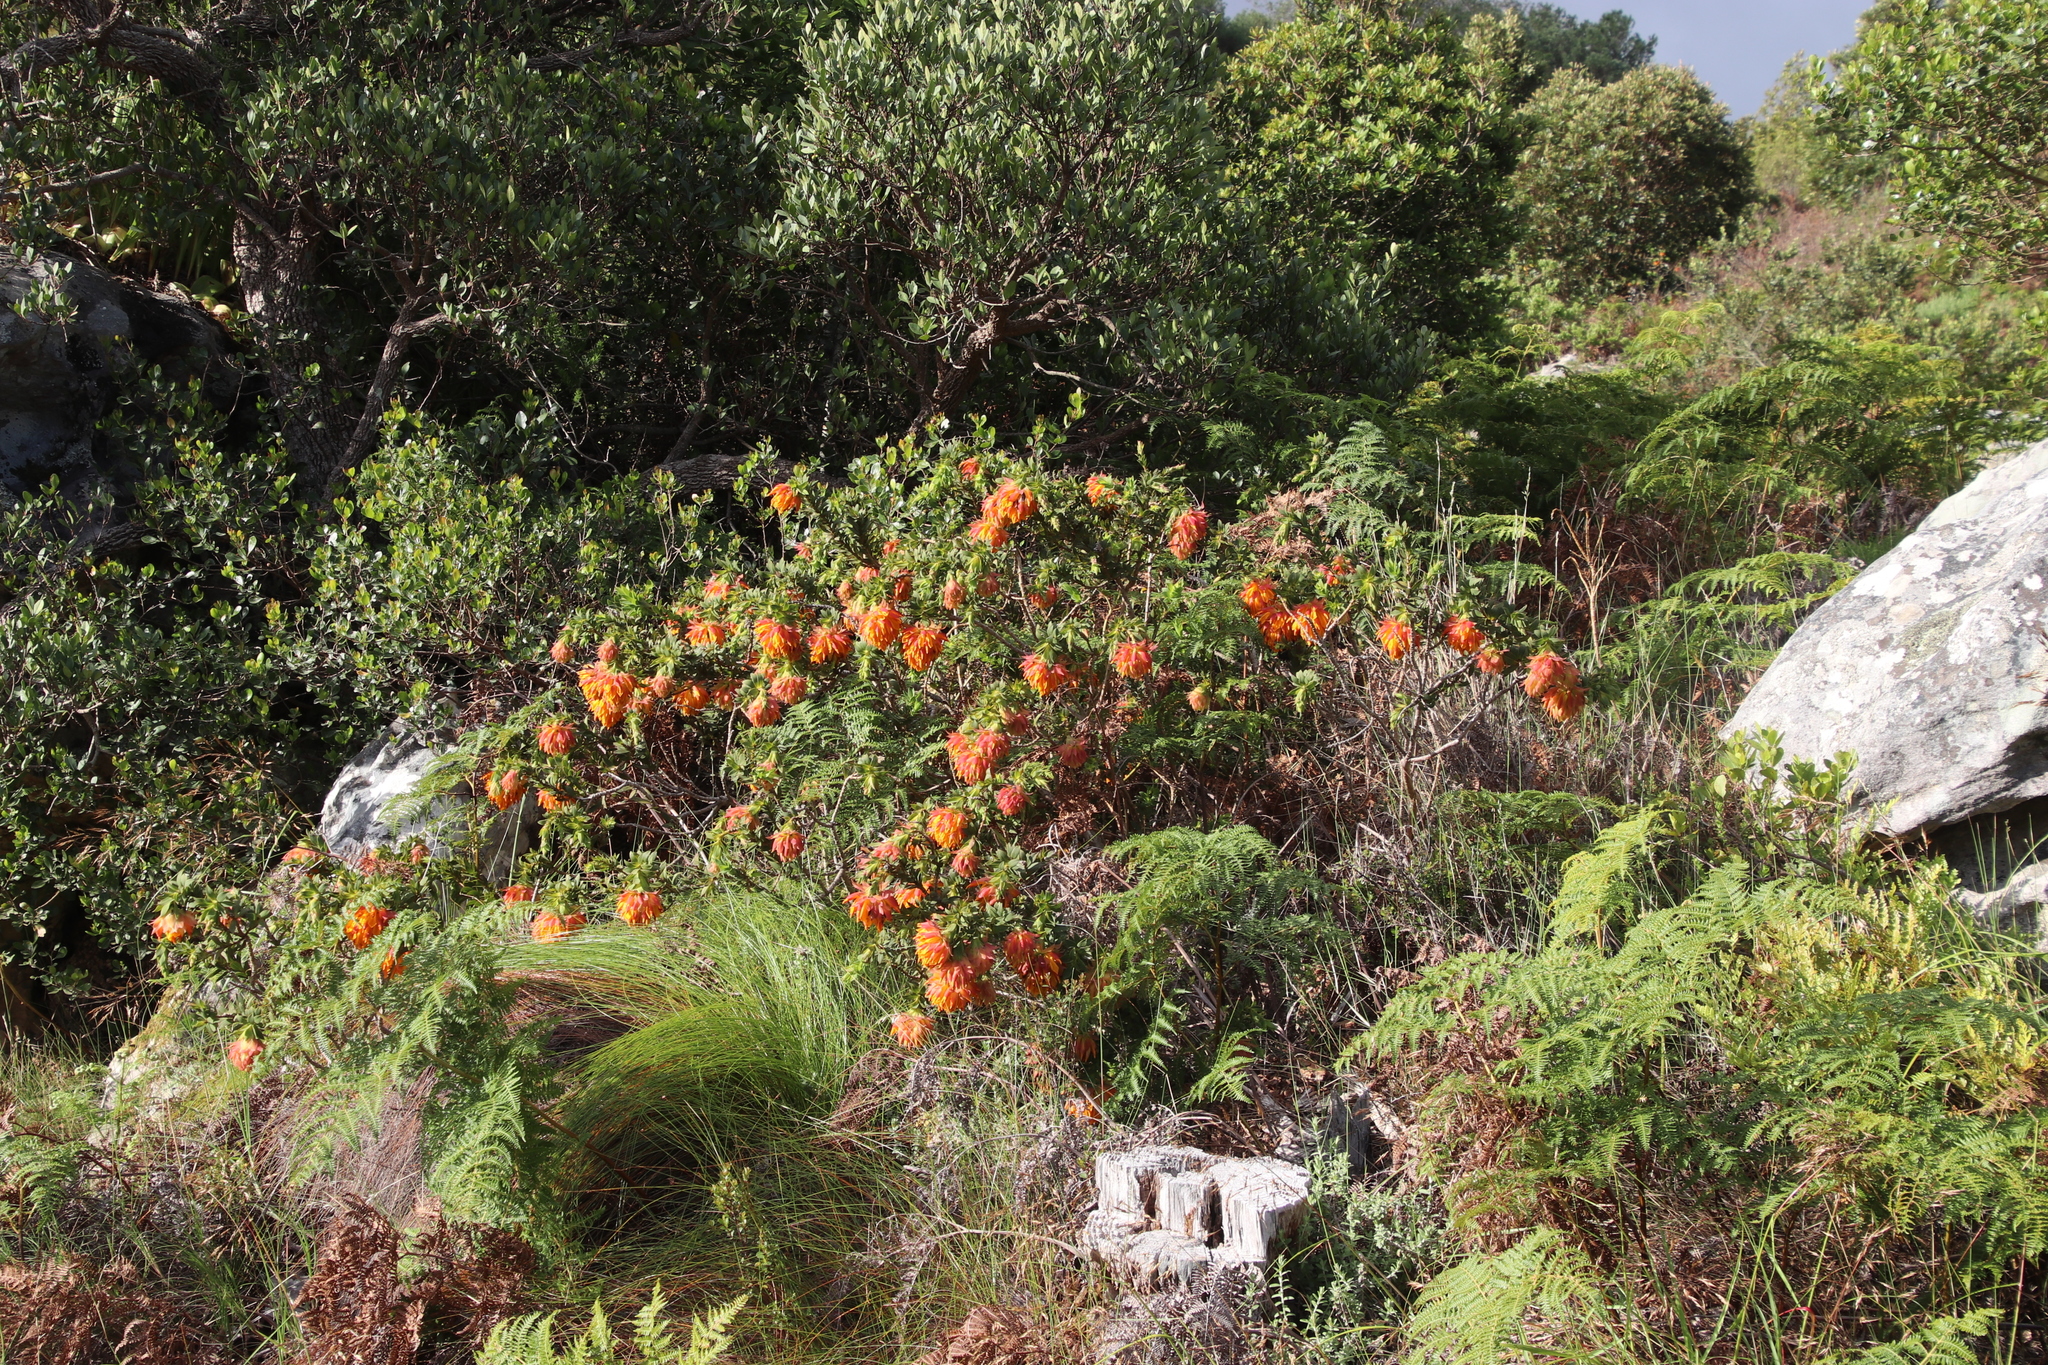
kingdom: Plantae
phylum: Tracheophyta
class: Magnoliopsida
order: Fabales
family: Fabaceae
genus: Liparia
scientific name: Liparia splendens
